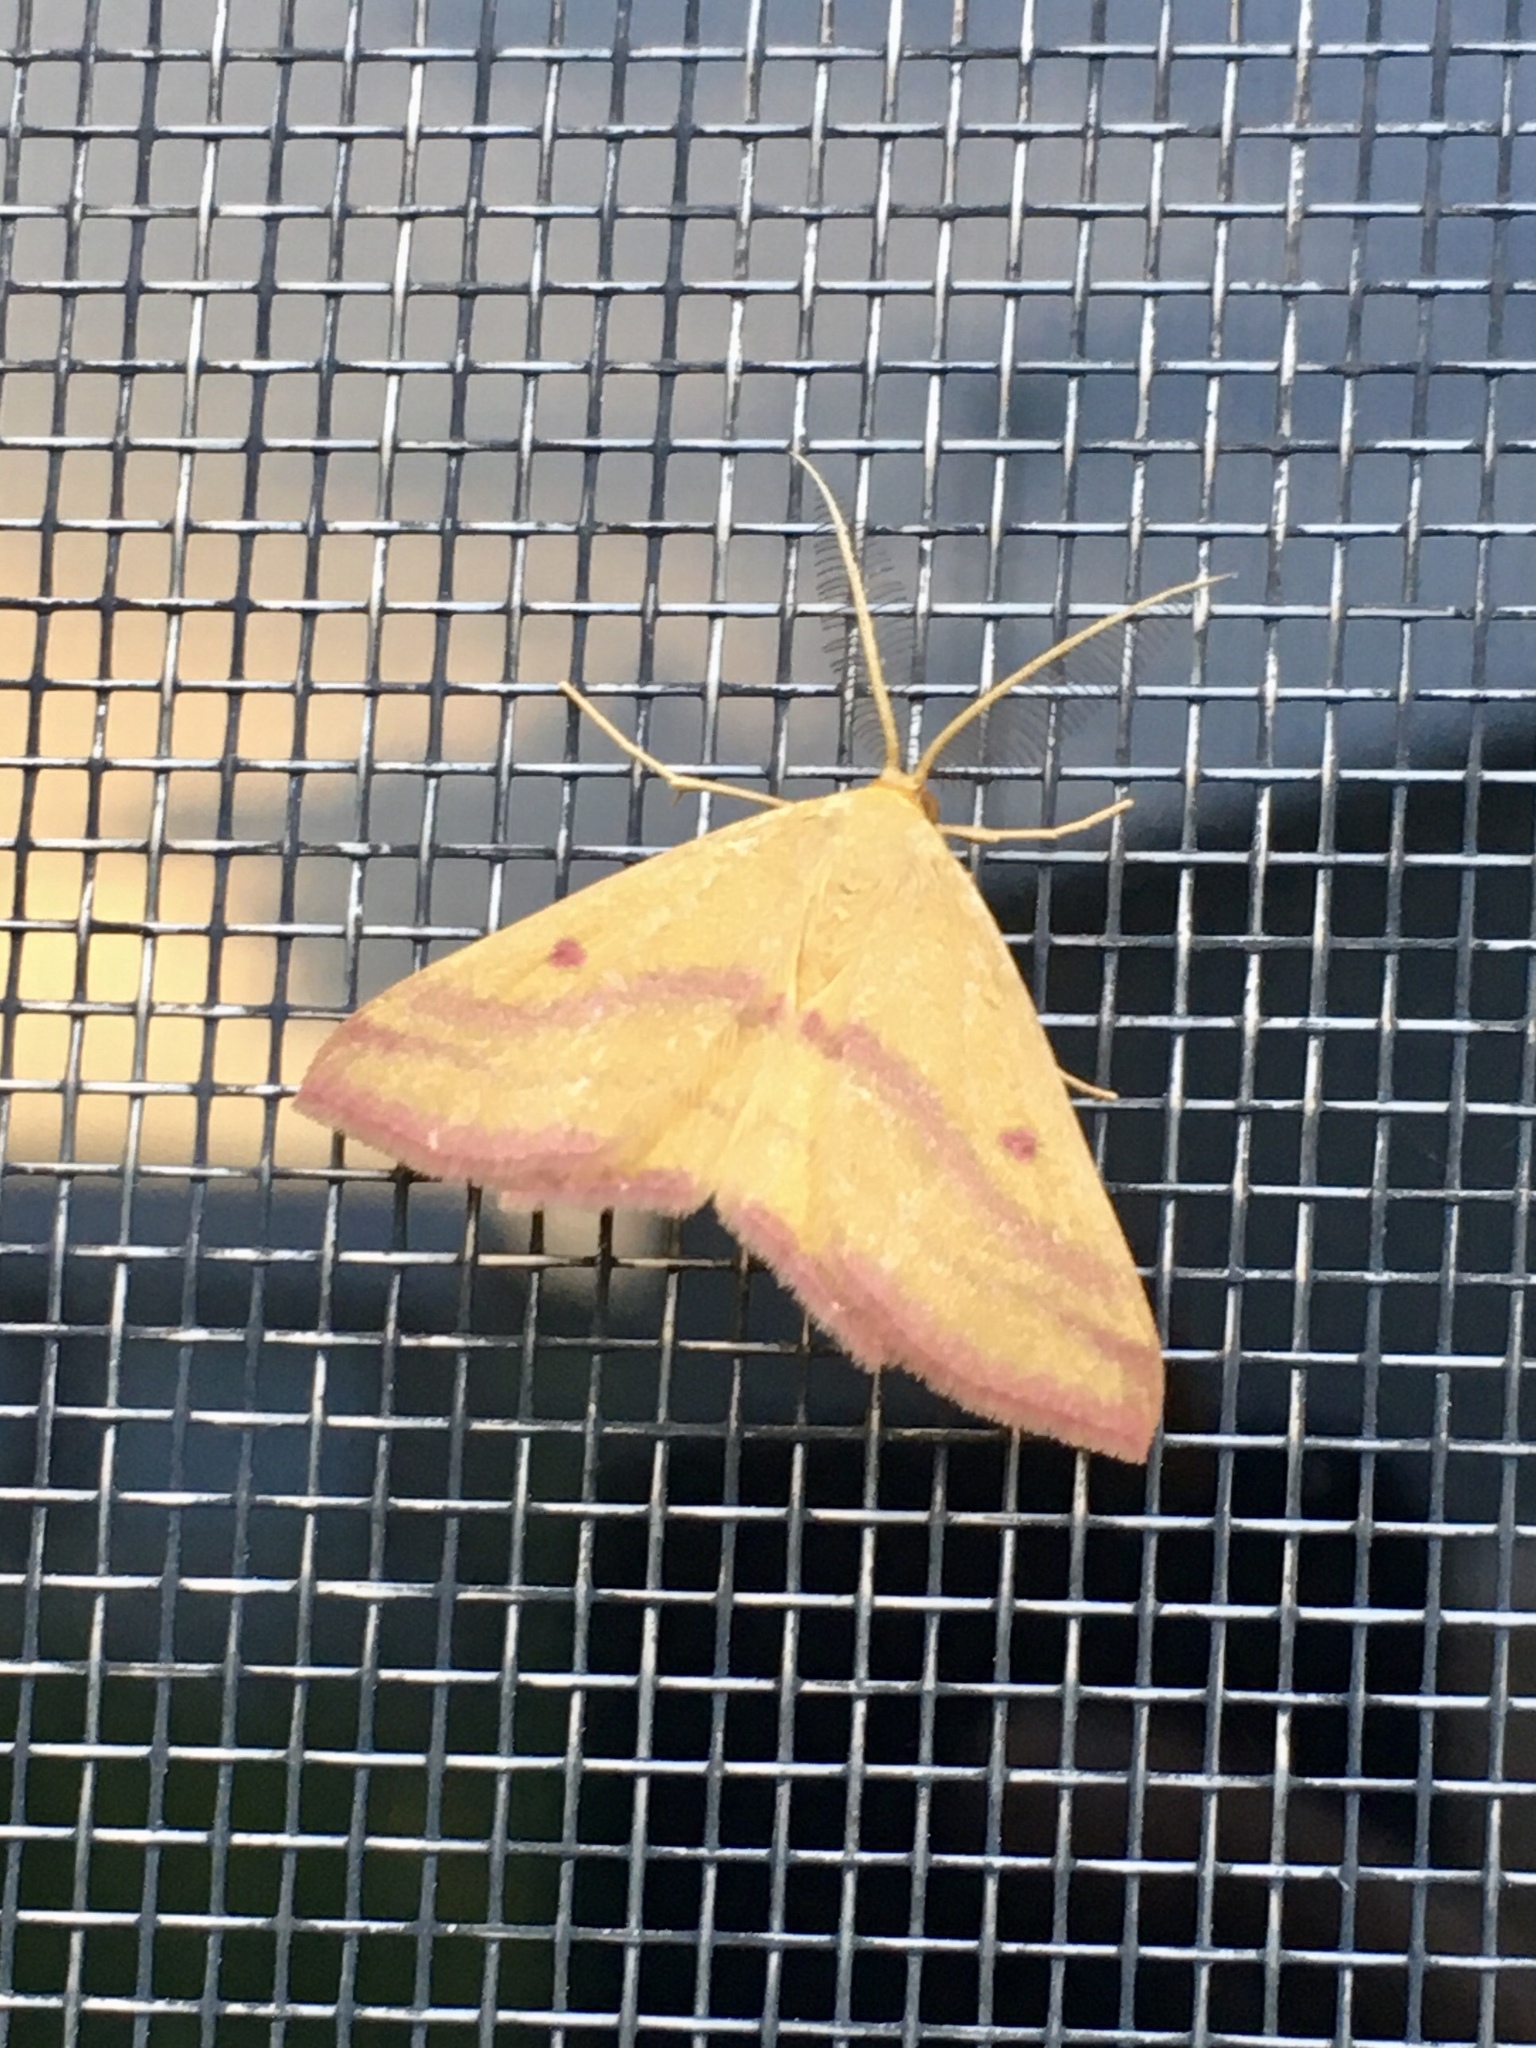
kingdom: Animalia
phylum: Arthropoda
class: Insecta
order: Lepidoptera
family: Geometridae
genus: Haematopis
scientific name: Haematopis grataria
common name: Chickweed geometer
